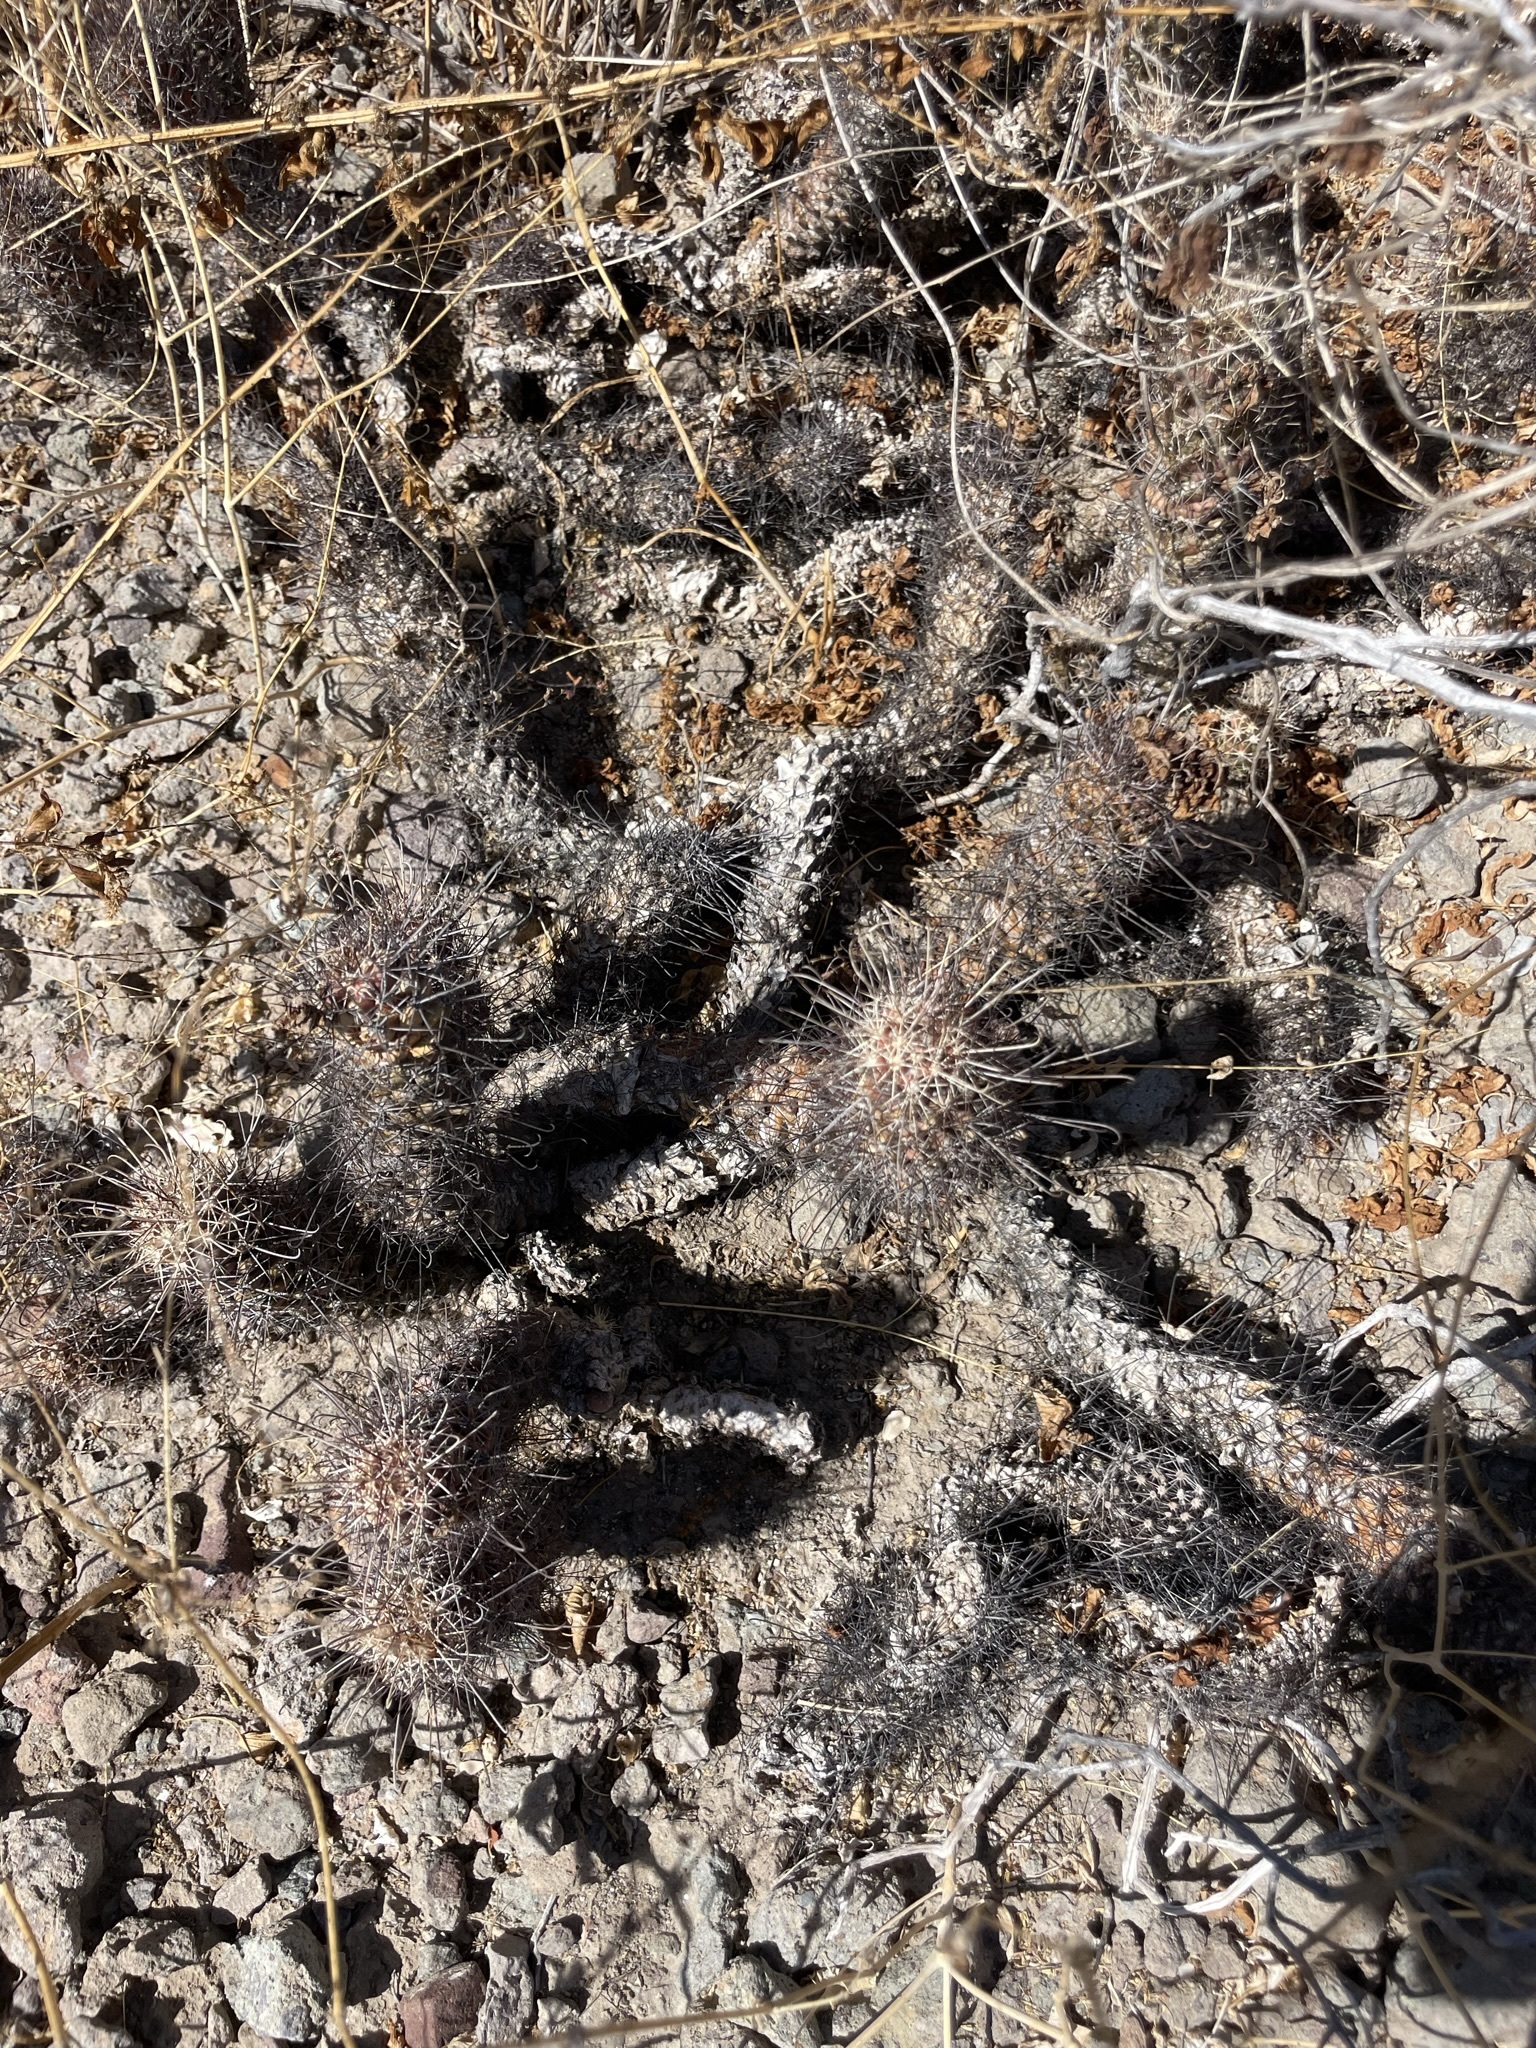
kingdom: Plantae
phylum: Tracheophyta
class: Magnoliopsida
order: Caryophyllales
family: Cactaceae
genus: Cochemiea
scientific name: Cochemiea poselgeri
